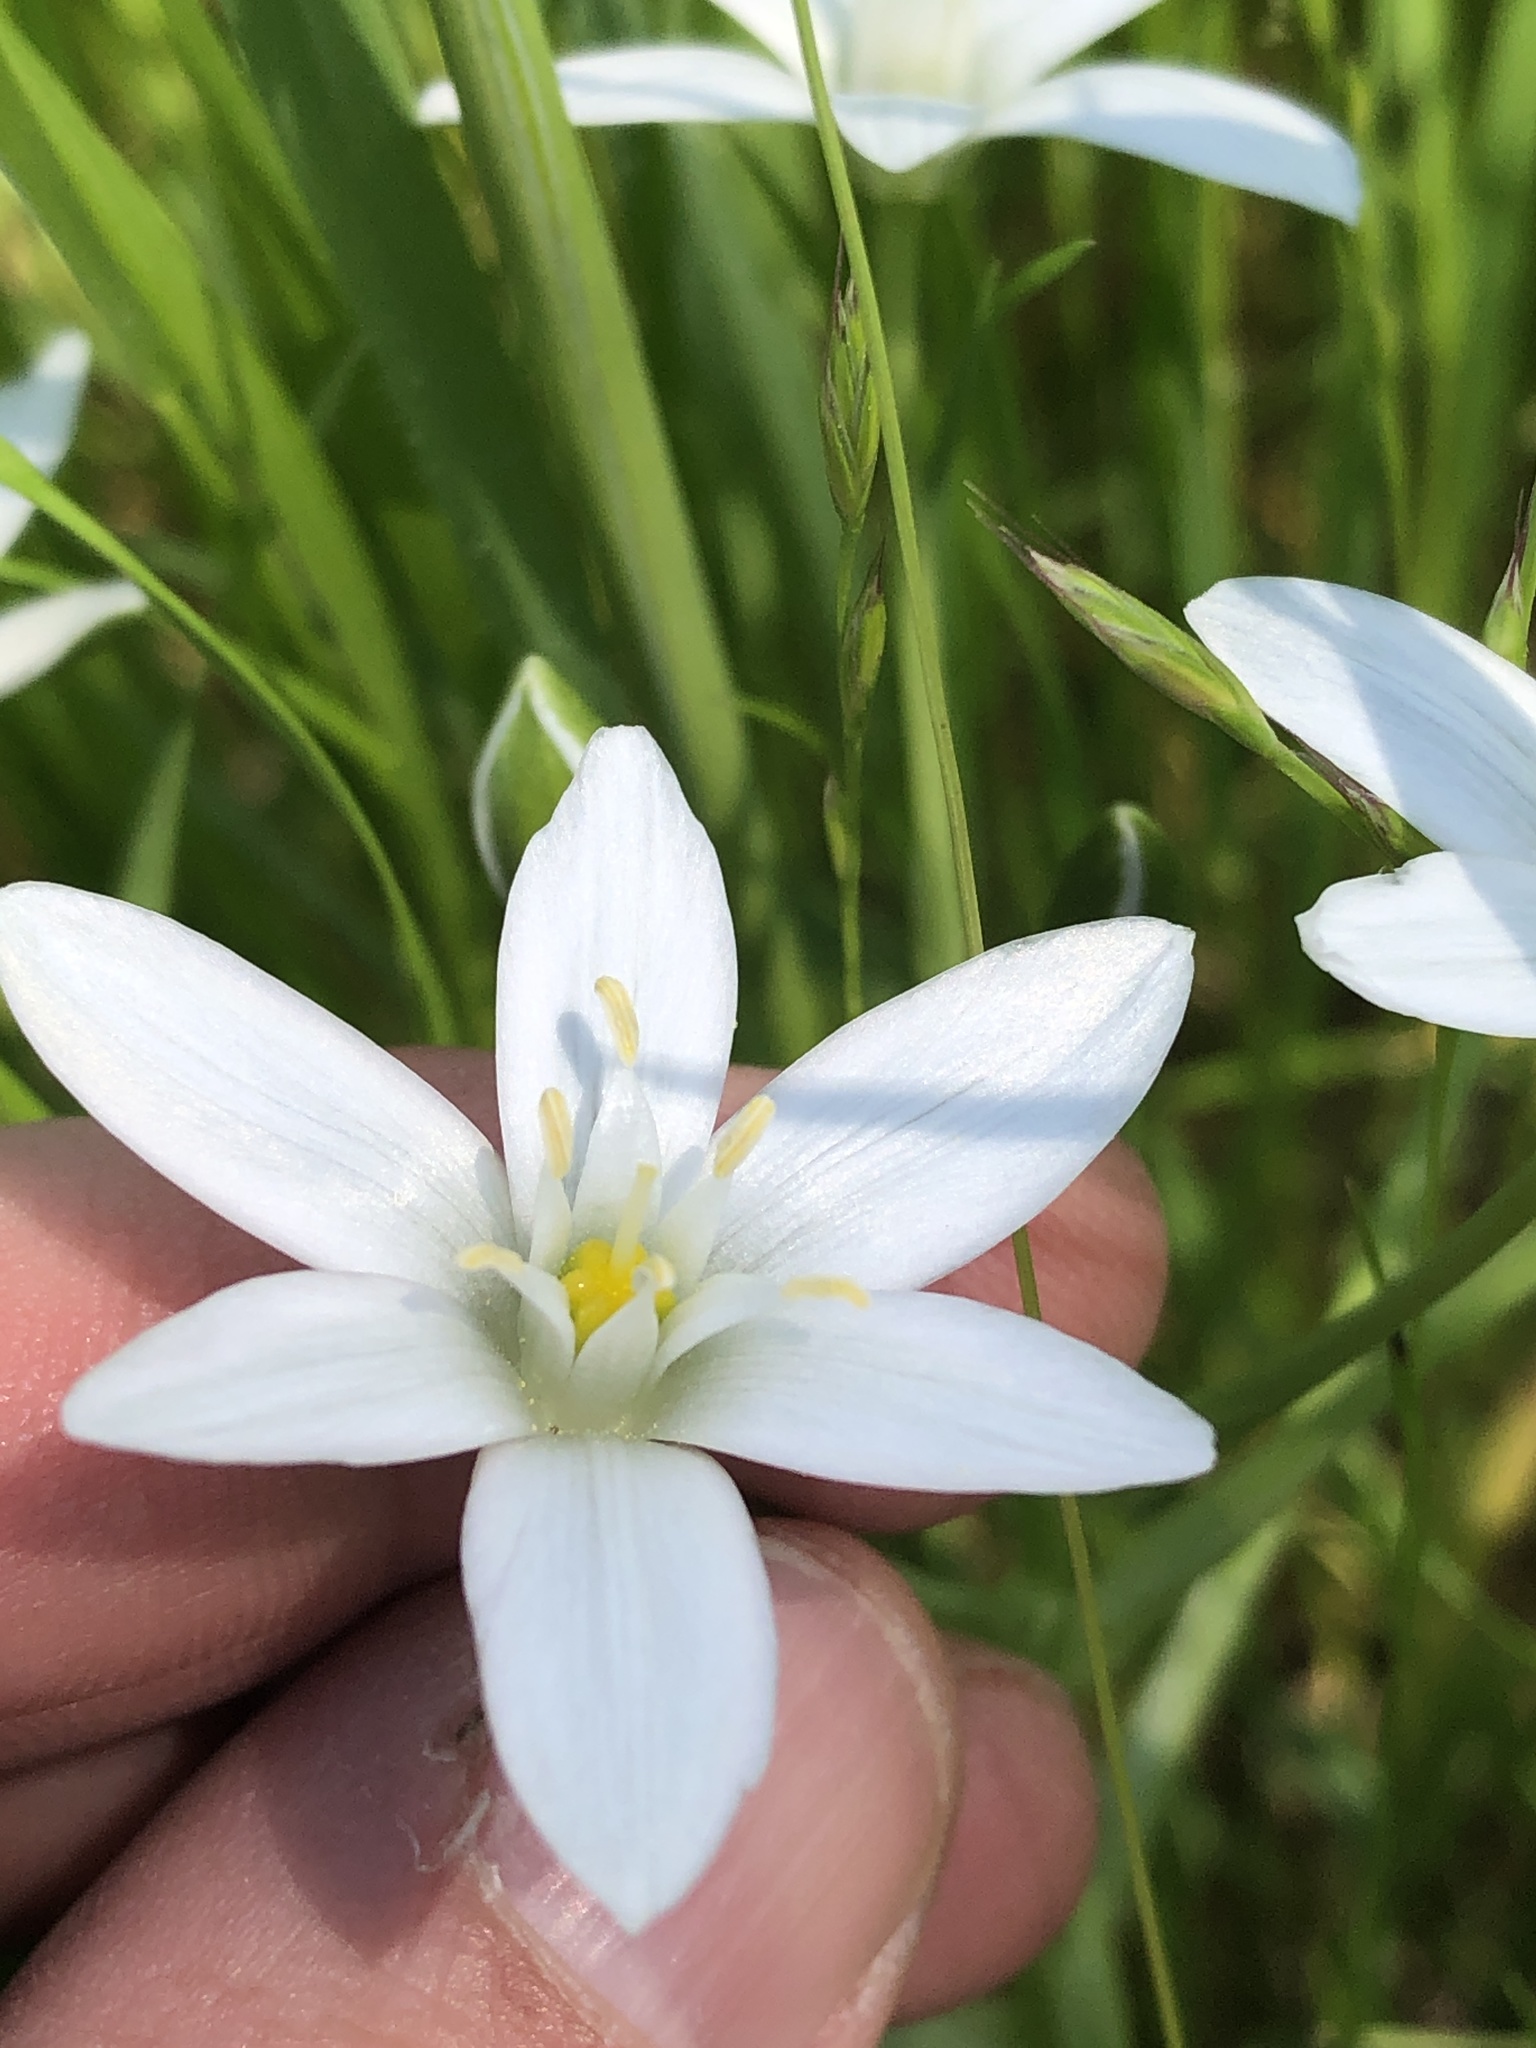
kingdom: Plantae
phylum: Tracheophyta
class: Liliopsida
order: Asparagales
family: Asparagaceae
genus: Ornithogalum
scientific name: Ornithogalum umbellatum
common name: Garden star-of-bethlehem
